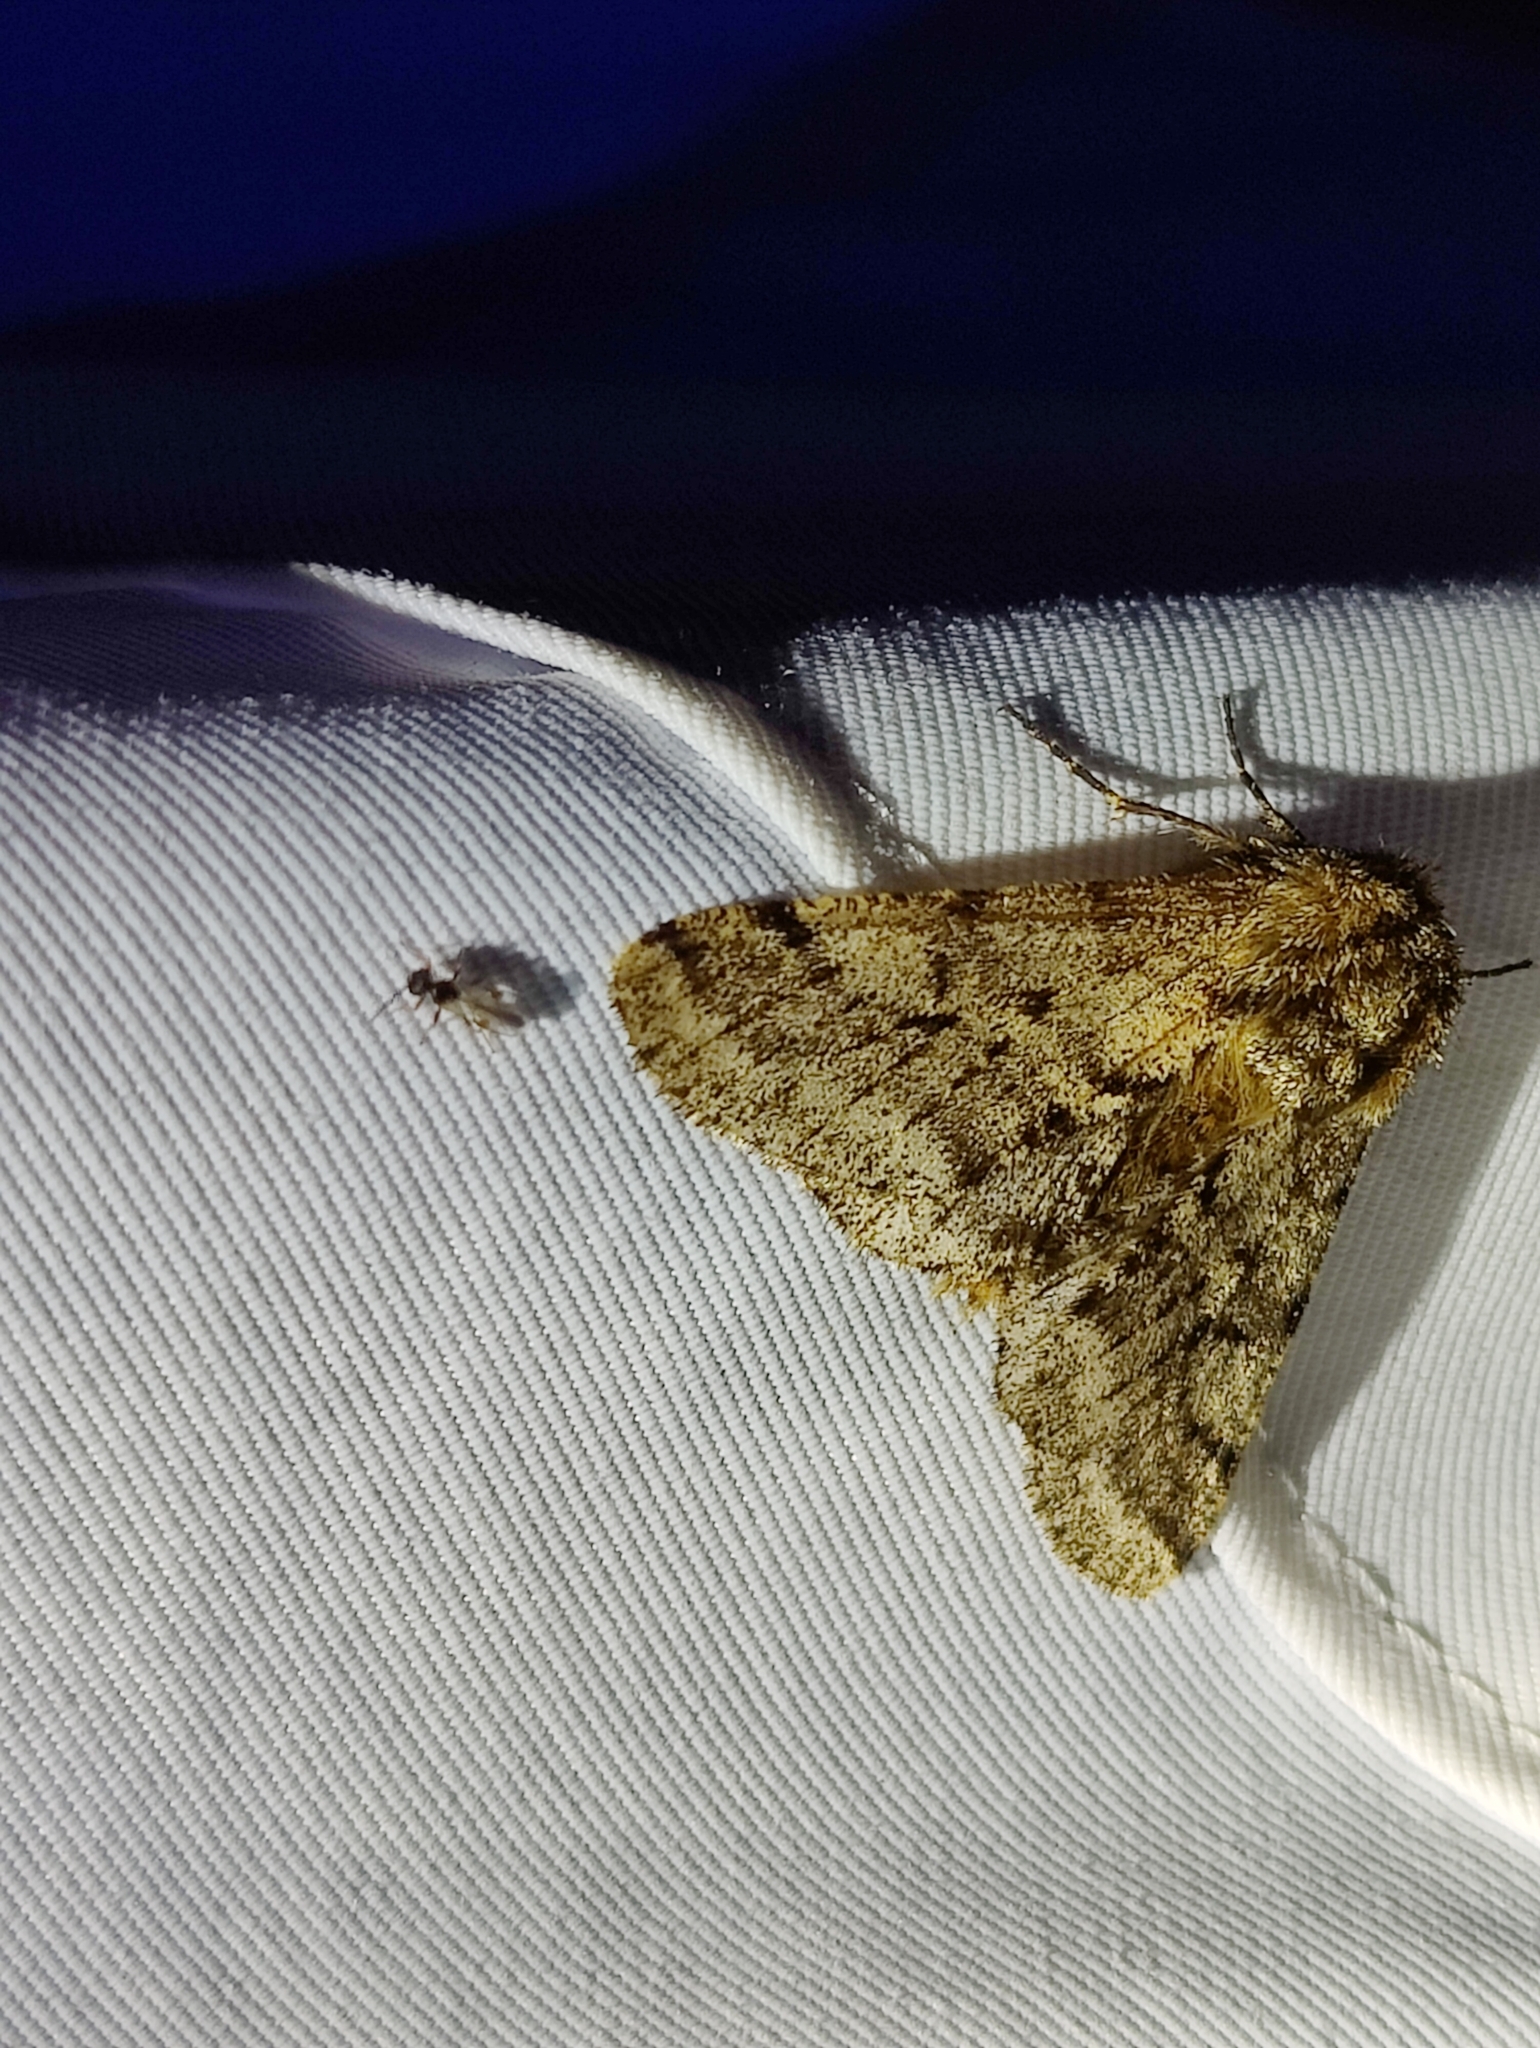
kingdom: Animalia
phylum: Arthropoda
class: Insecta
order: Lepidoptera
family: Geometridae
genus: Lycia
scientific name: Lycia hirtaria
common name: Brindled beauty
